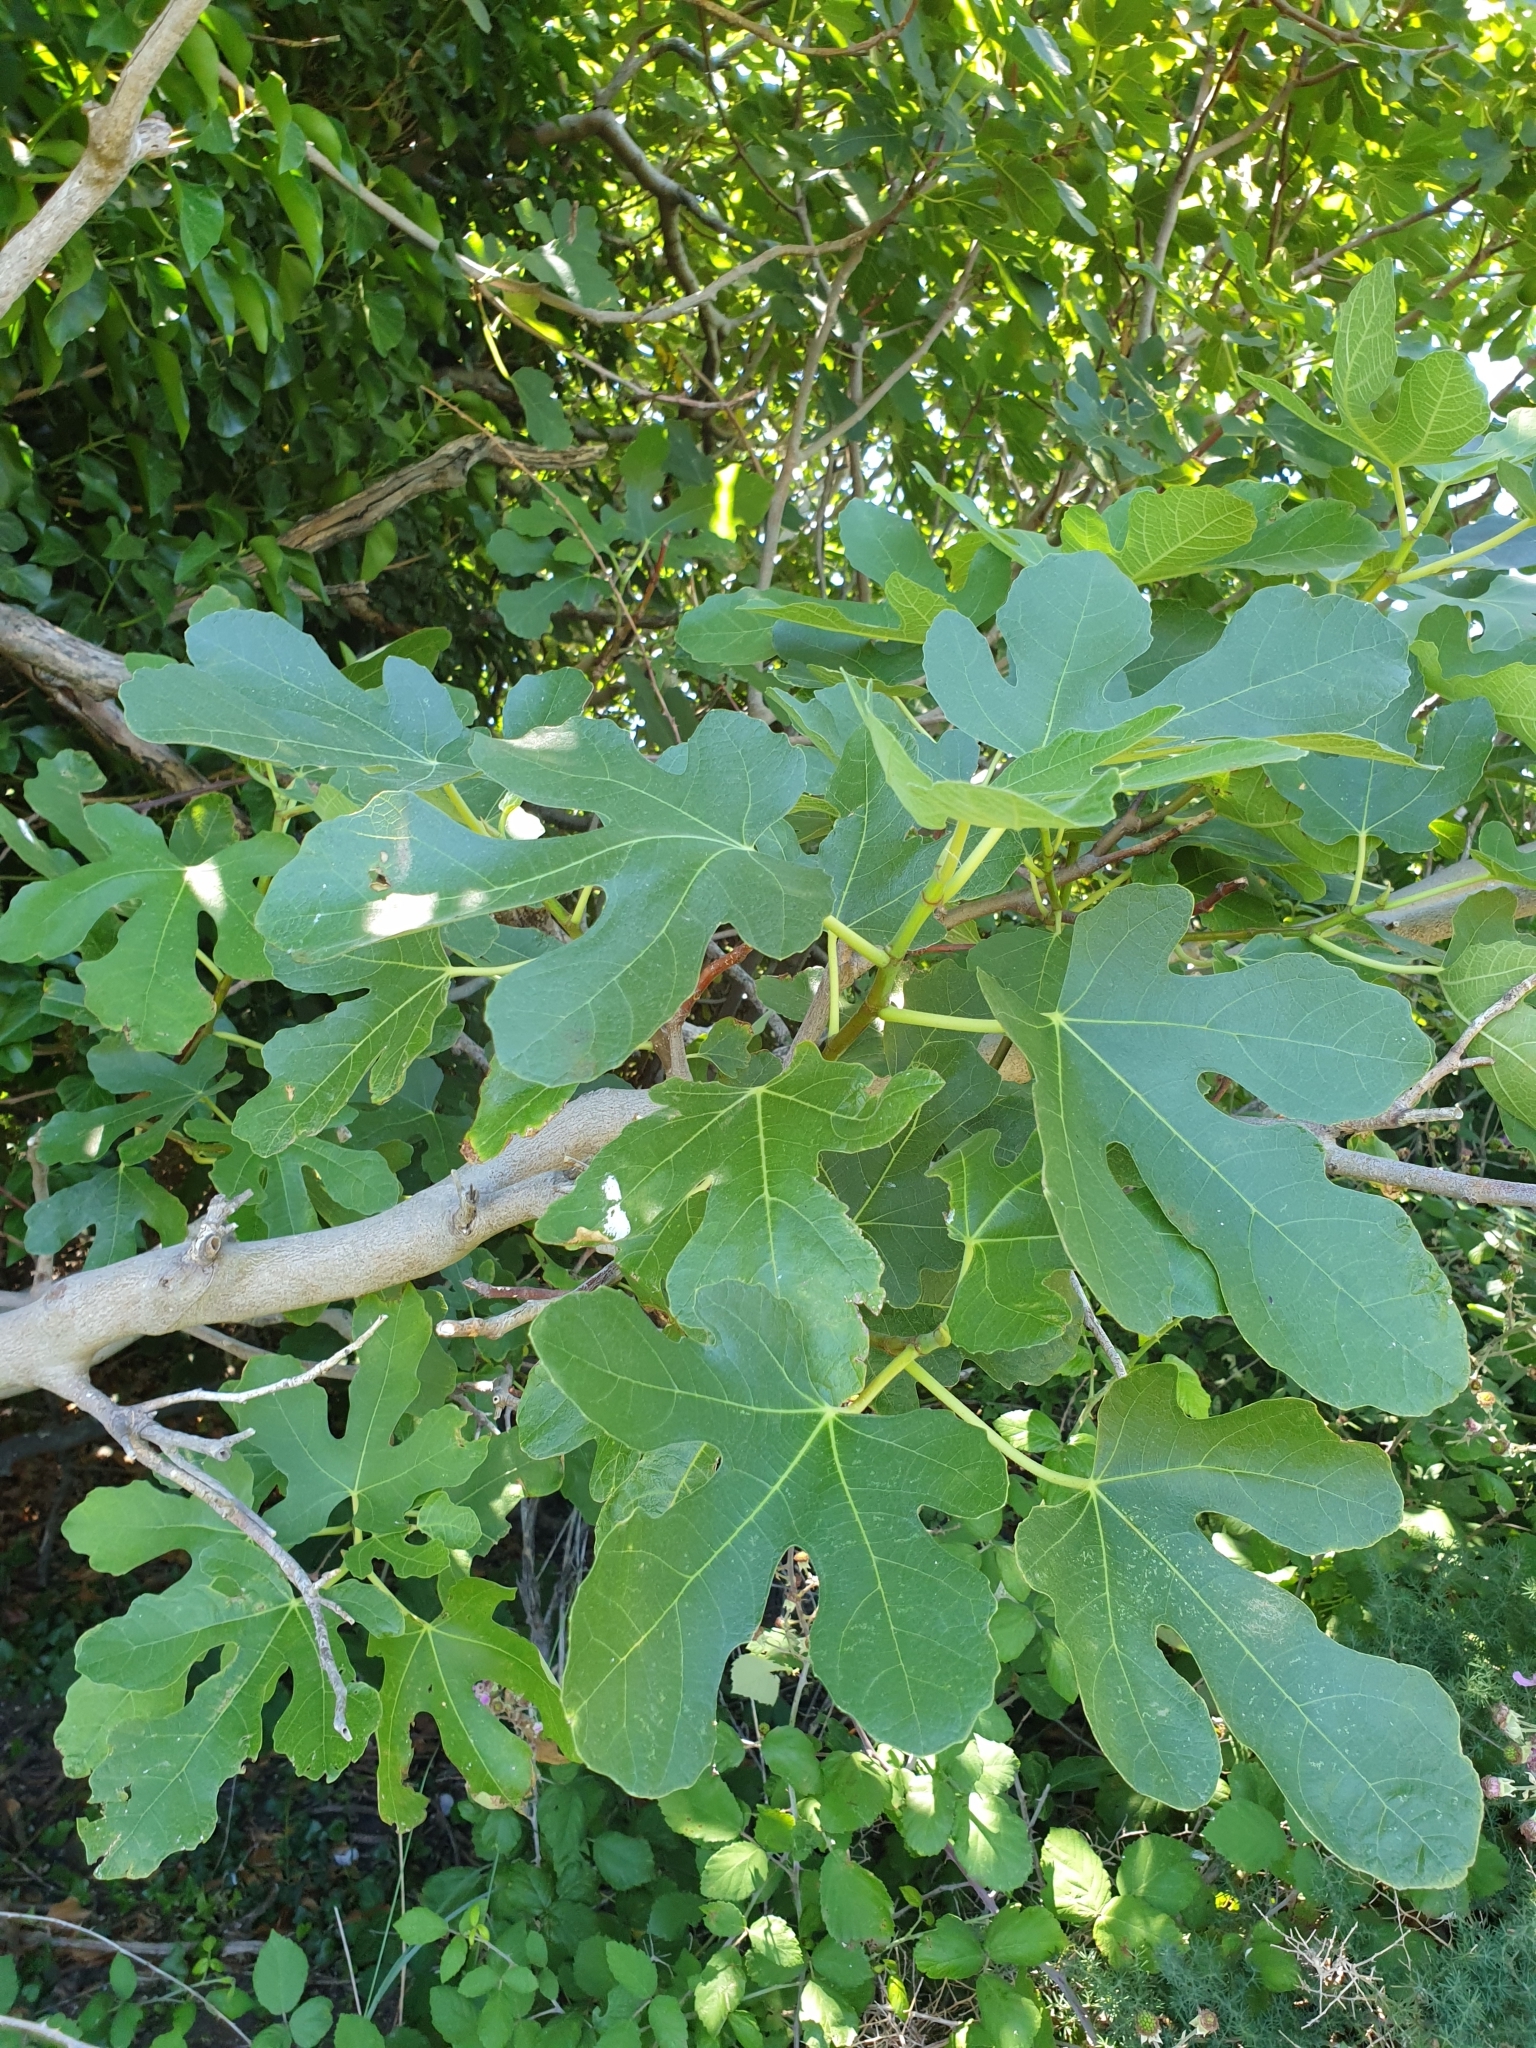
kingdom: Plantae
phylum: Tracheophyta
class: Magnoliopsida
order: Rosales
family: Moraceae
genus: Ficus
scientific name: Ficus carica
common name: Fig
